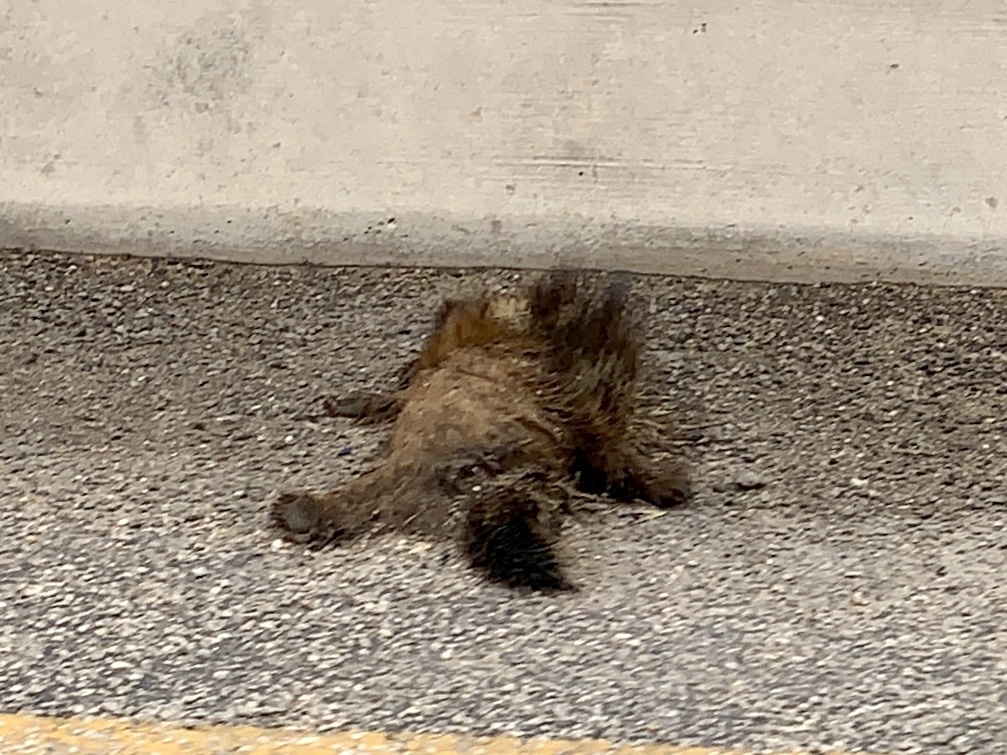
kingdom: Animalia
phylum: Chordata
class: Mammalia
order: Rodentia
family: Erethizontidae
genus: Erethizon
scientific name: Erethizon dorsatus
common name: North american porcupine
